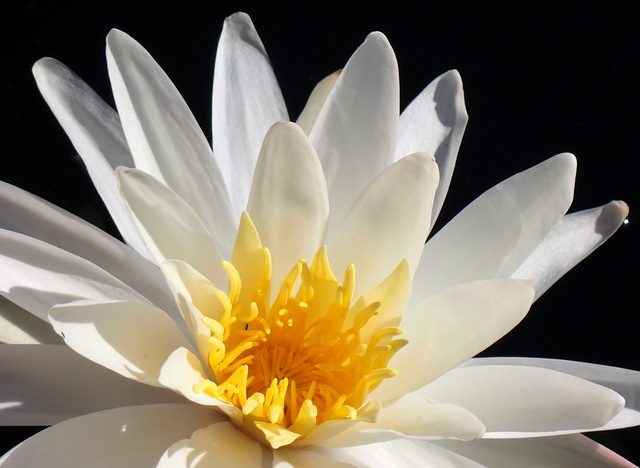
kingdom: Plantae
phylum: Tracheophyta
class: Magnoliopsida
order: Nymphaeales
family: Nymphaeaceae
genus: Nymphaea
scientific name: Nymphaea odorata
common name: Fragrant water-lily
